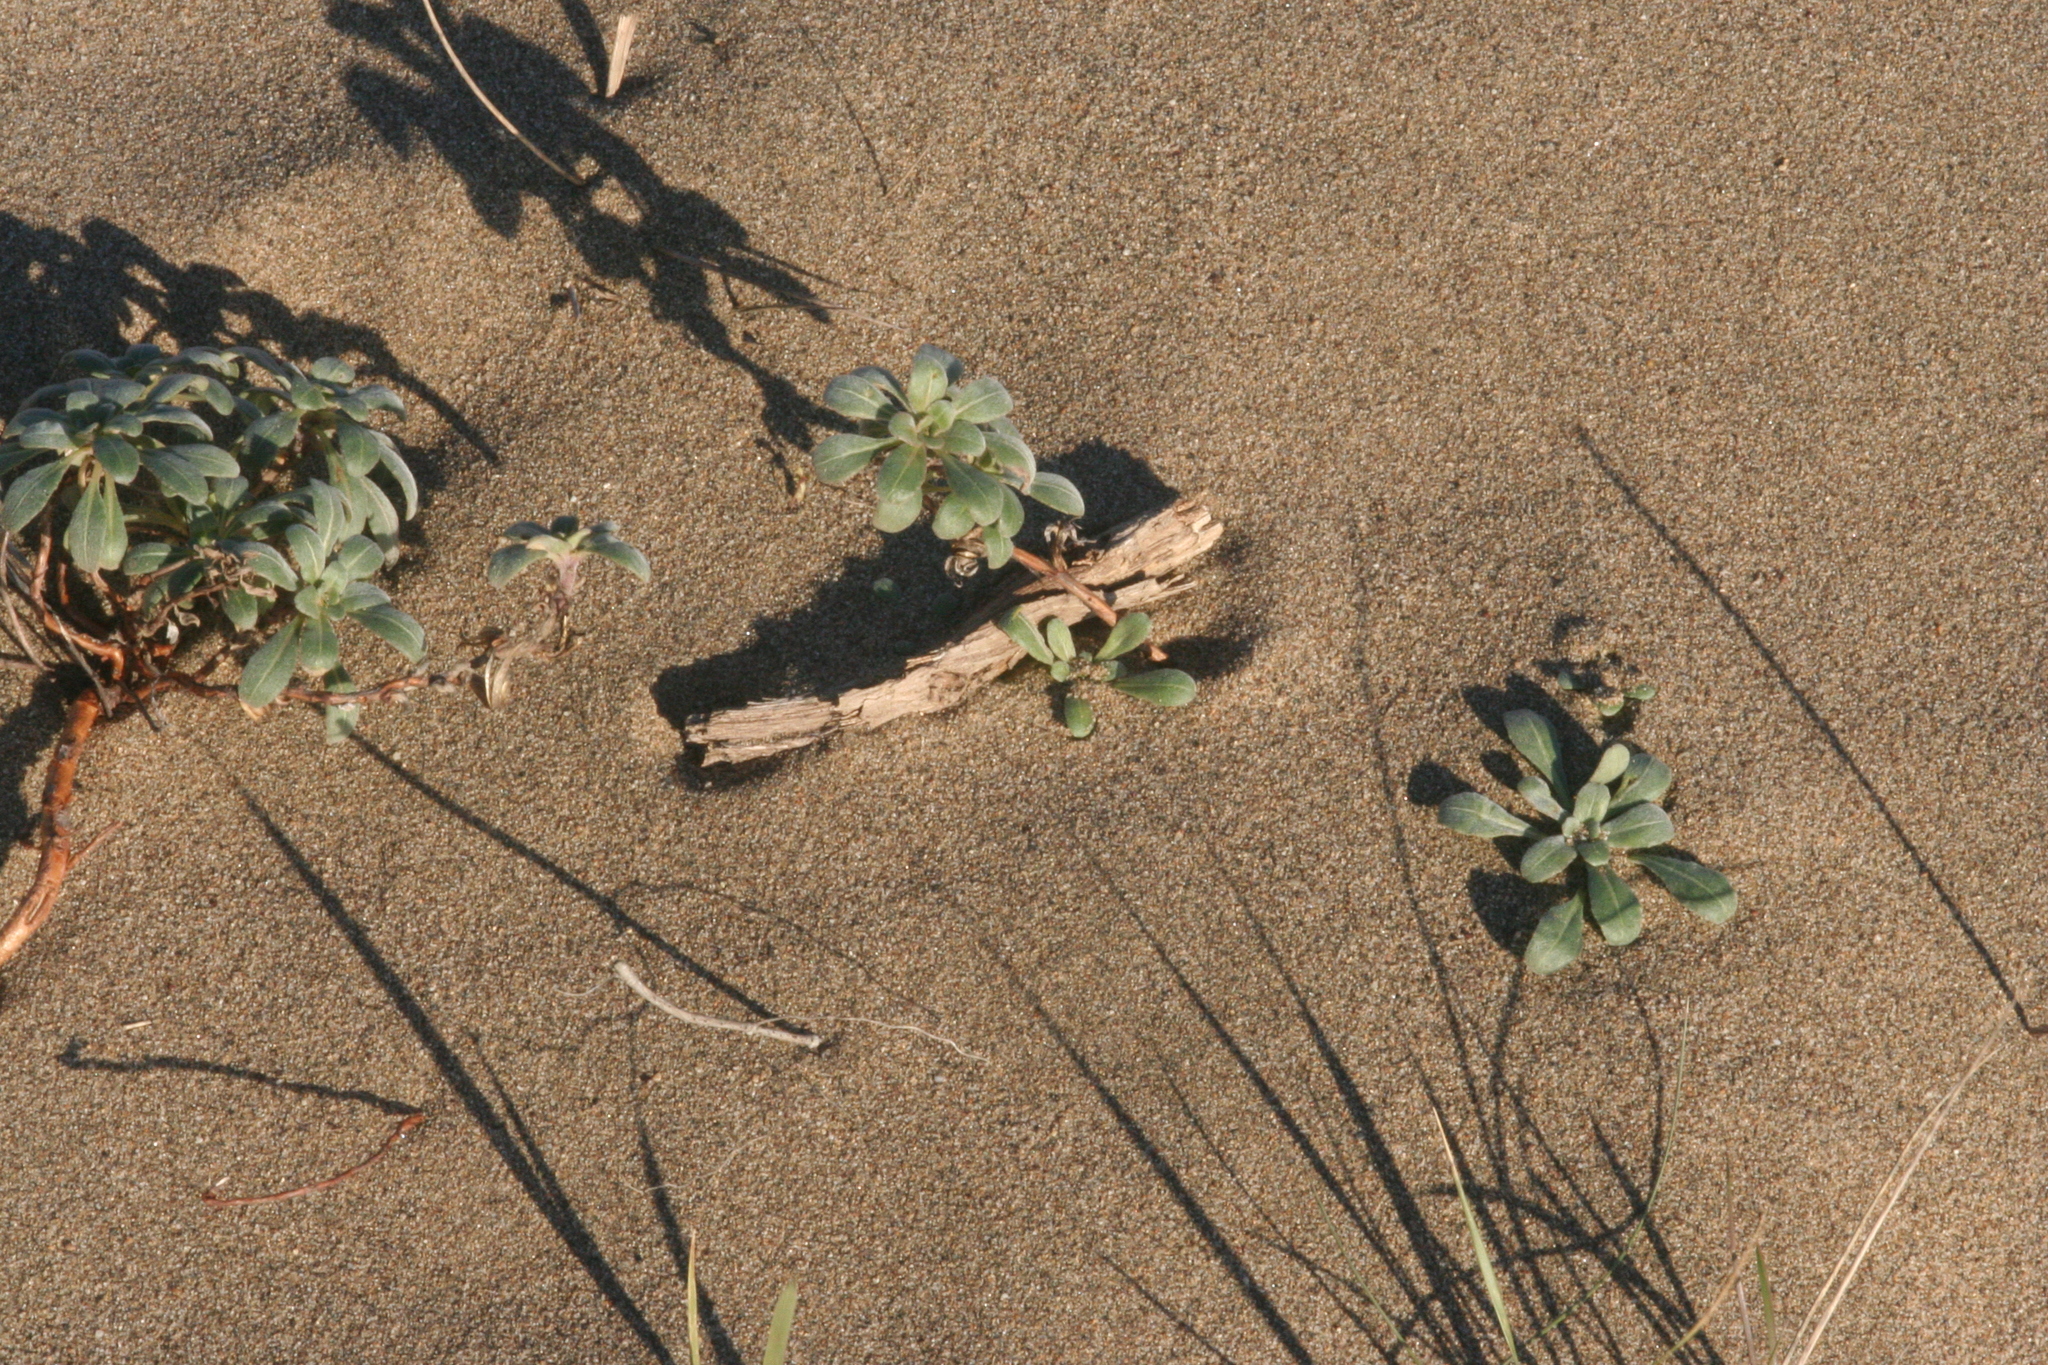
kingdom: Plantae
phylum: Tracheophyta
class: Magnoliopsida
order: Myrtales
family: Onagraceae
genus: Camissoniopsis
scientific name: Camissoniopsis cheiranthifolia
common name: Beach suncup
